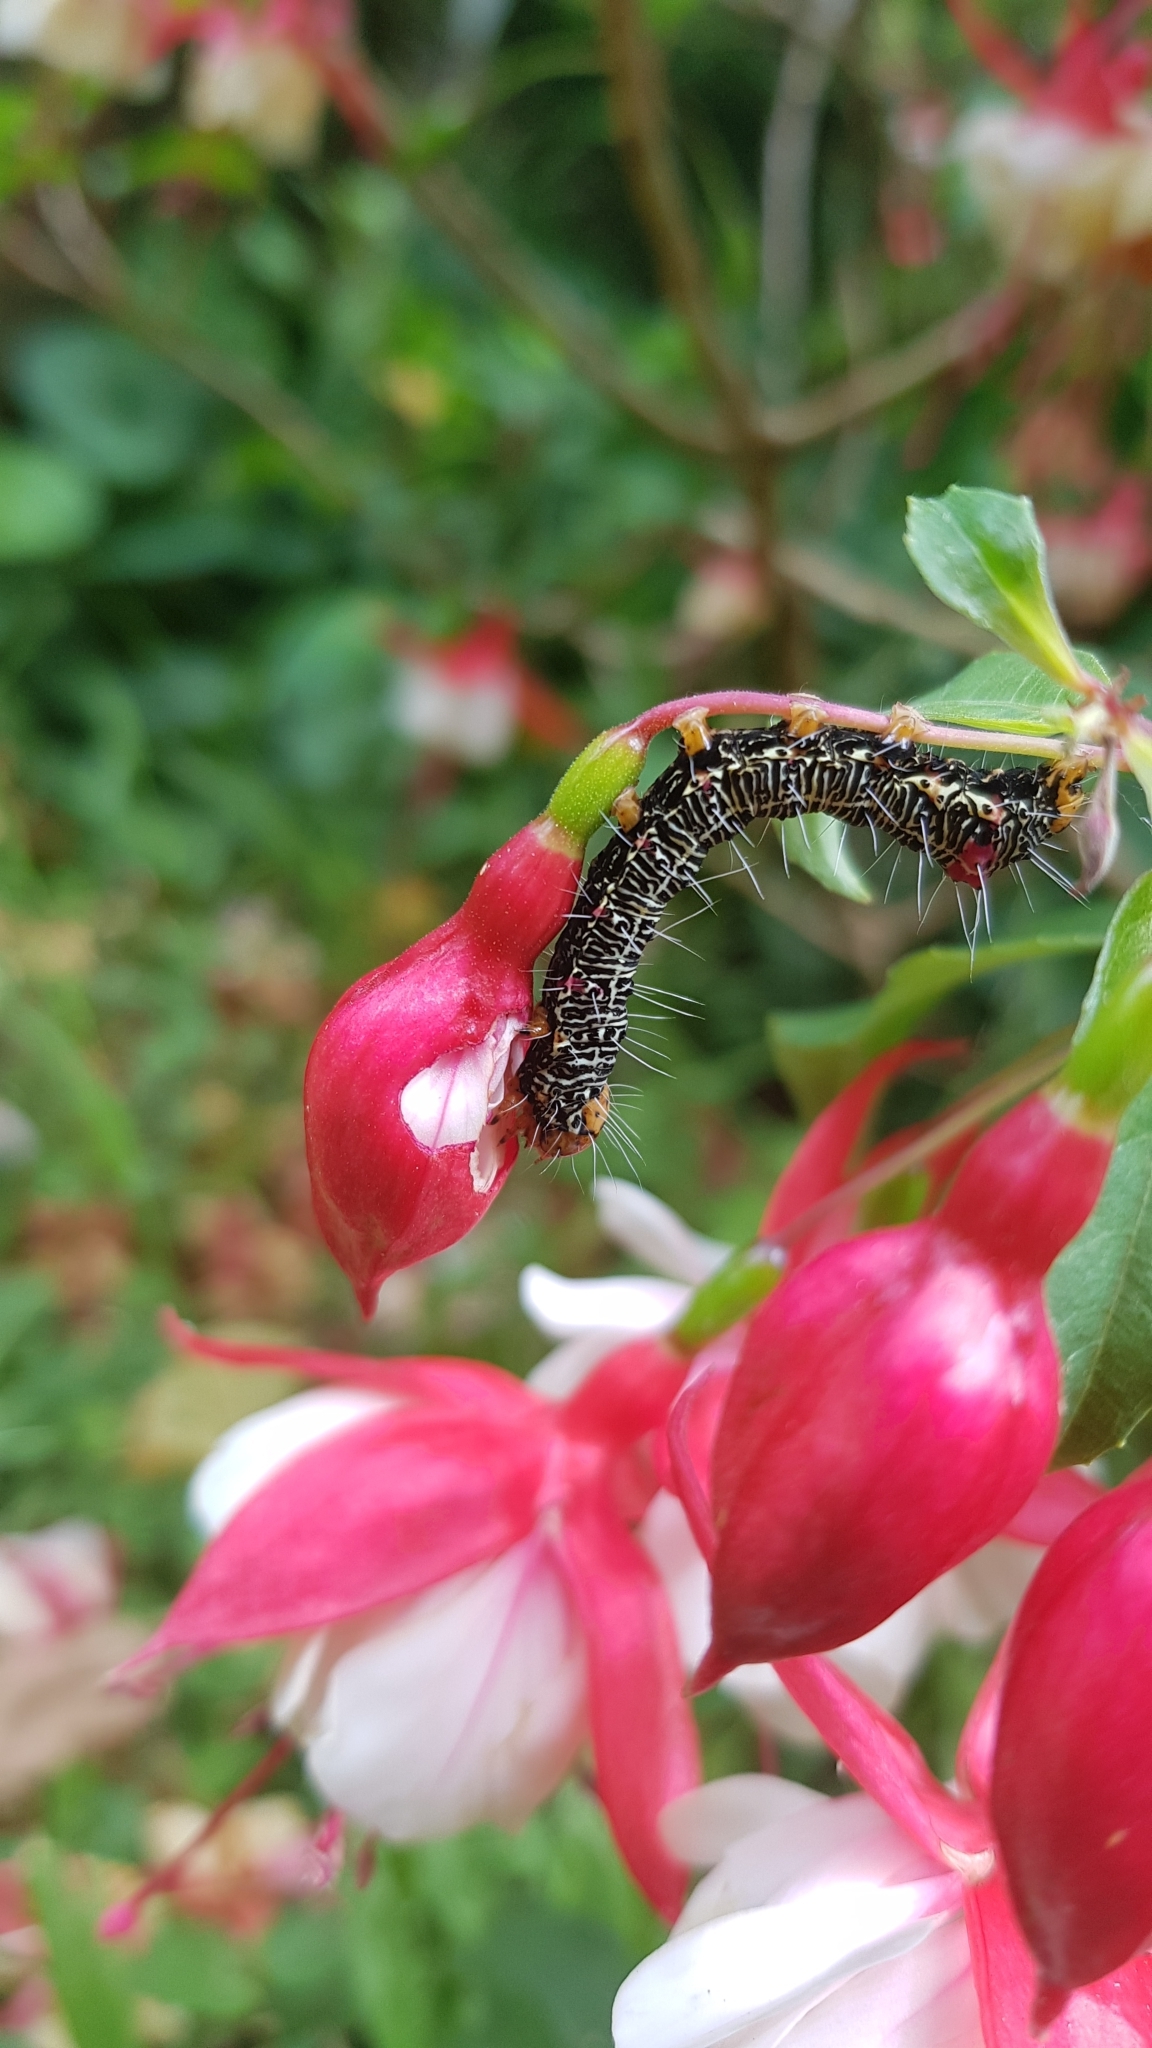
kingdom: Animalia
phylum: Arthropoda
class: Insecta
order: Lepidoptera
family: Noctuidae
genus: Phalaenoides
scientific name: Phalaenoides glycinae
